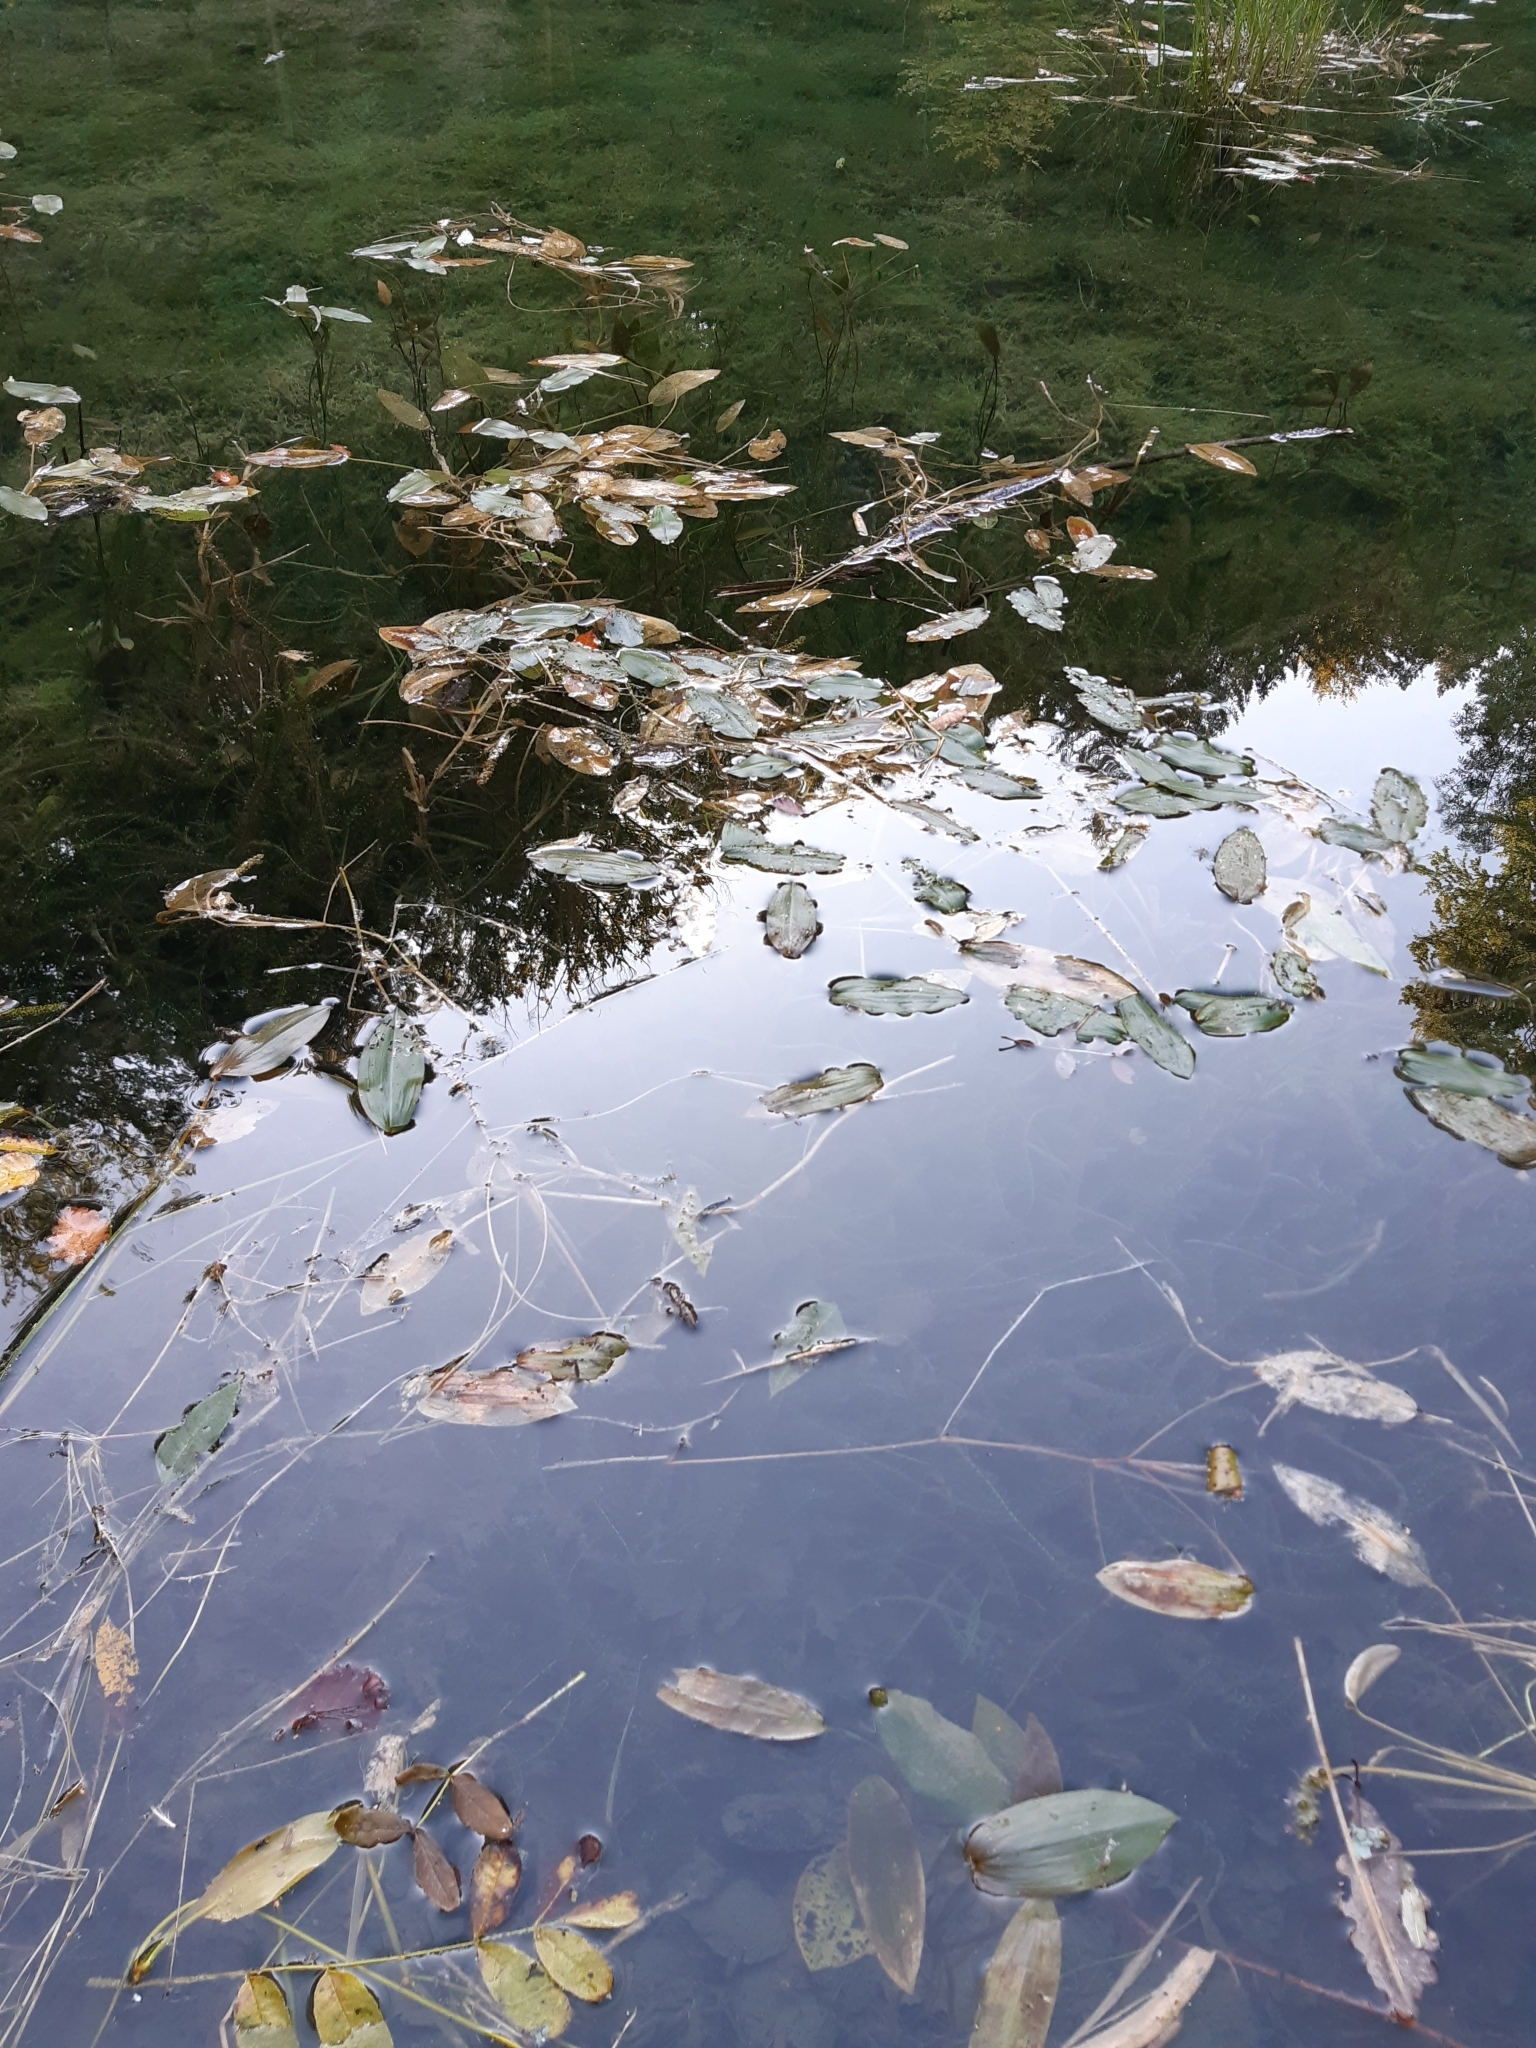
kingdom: Plantae
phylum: Tracheophyta
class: Liliopsida
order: Alismatales
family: Potamogetonaceae
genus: Potamogeton
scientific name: Potamogeton natans
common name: Broad-leaved pondweed
